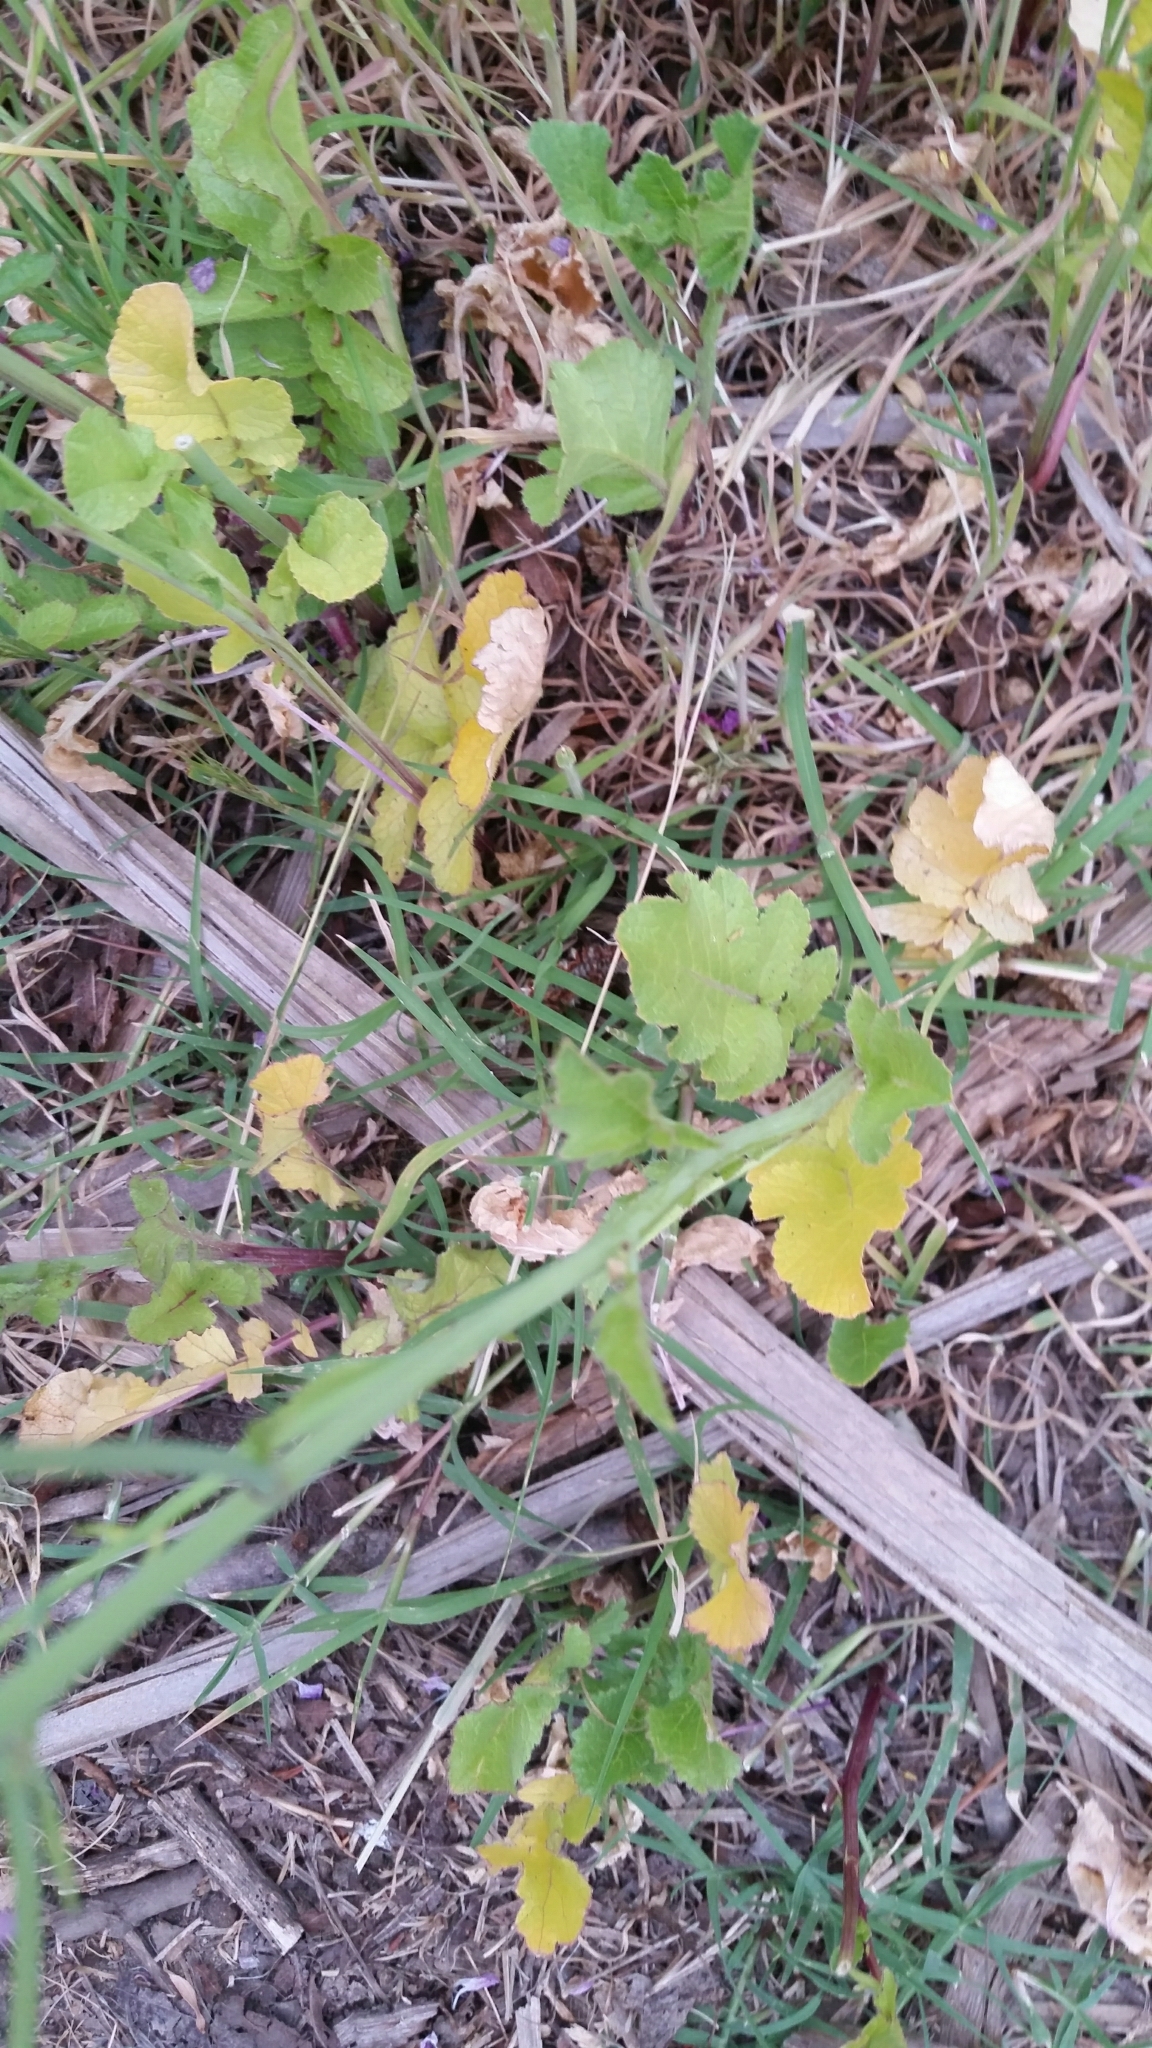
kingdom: Plantae
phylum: Tracheophyta
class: Magnoliopsida
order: Brassicales
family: Brassicaceae
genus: Raphanus
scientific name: Raphanus sativus
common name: Cultivated radish
